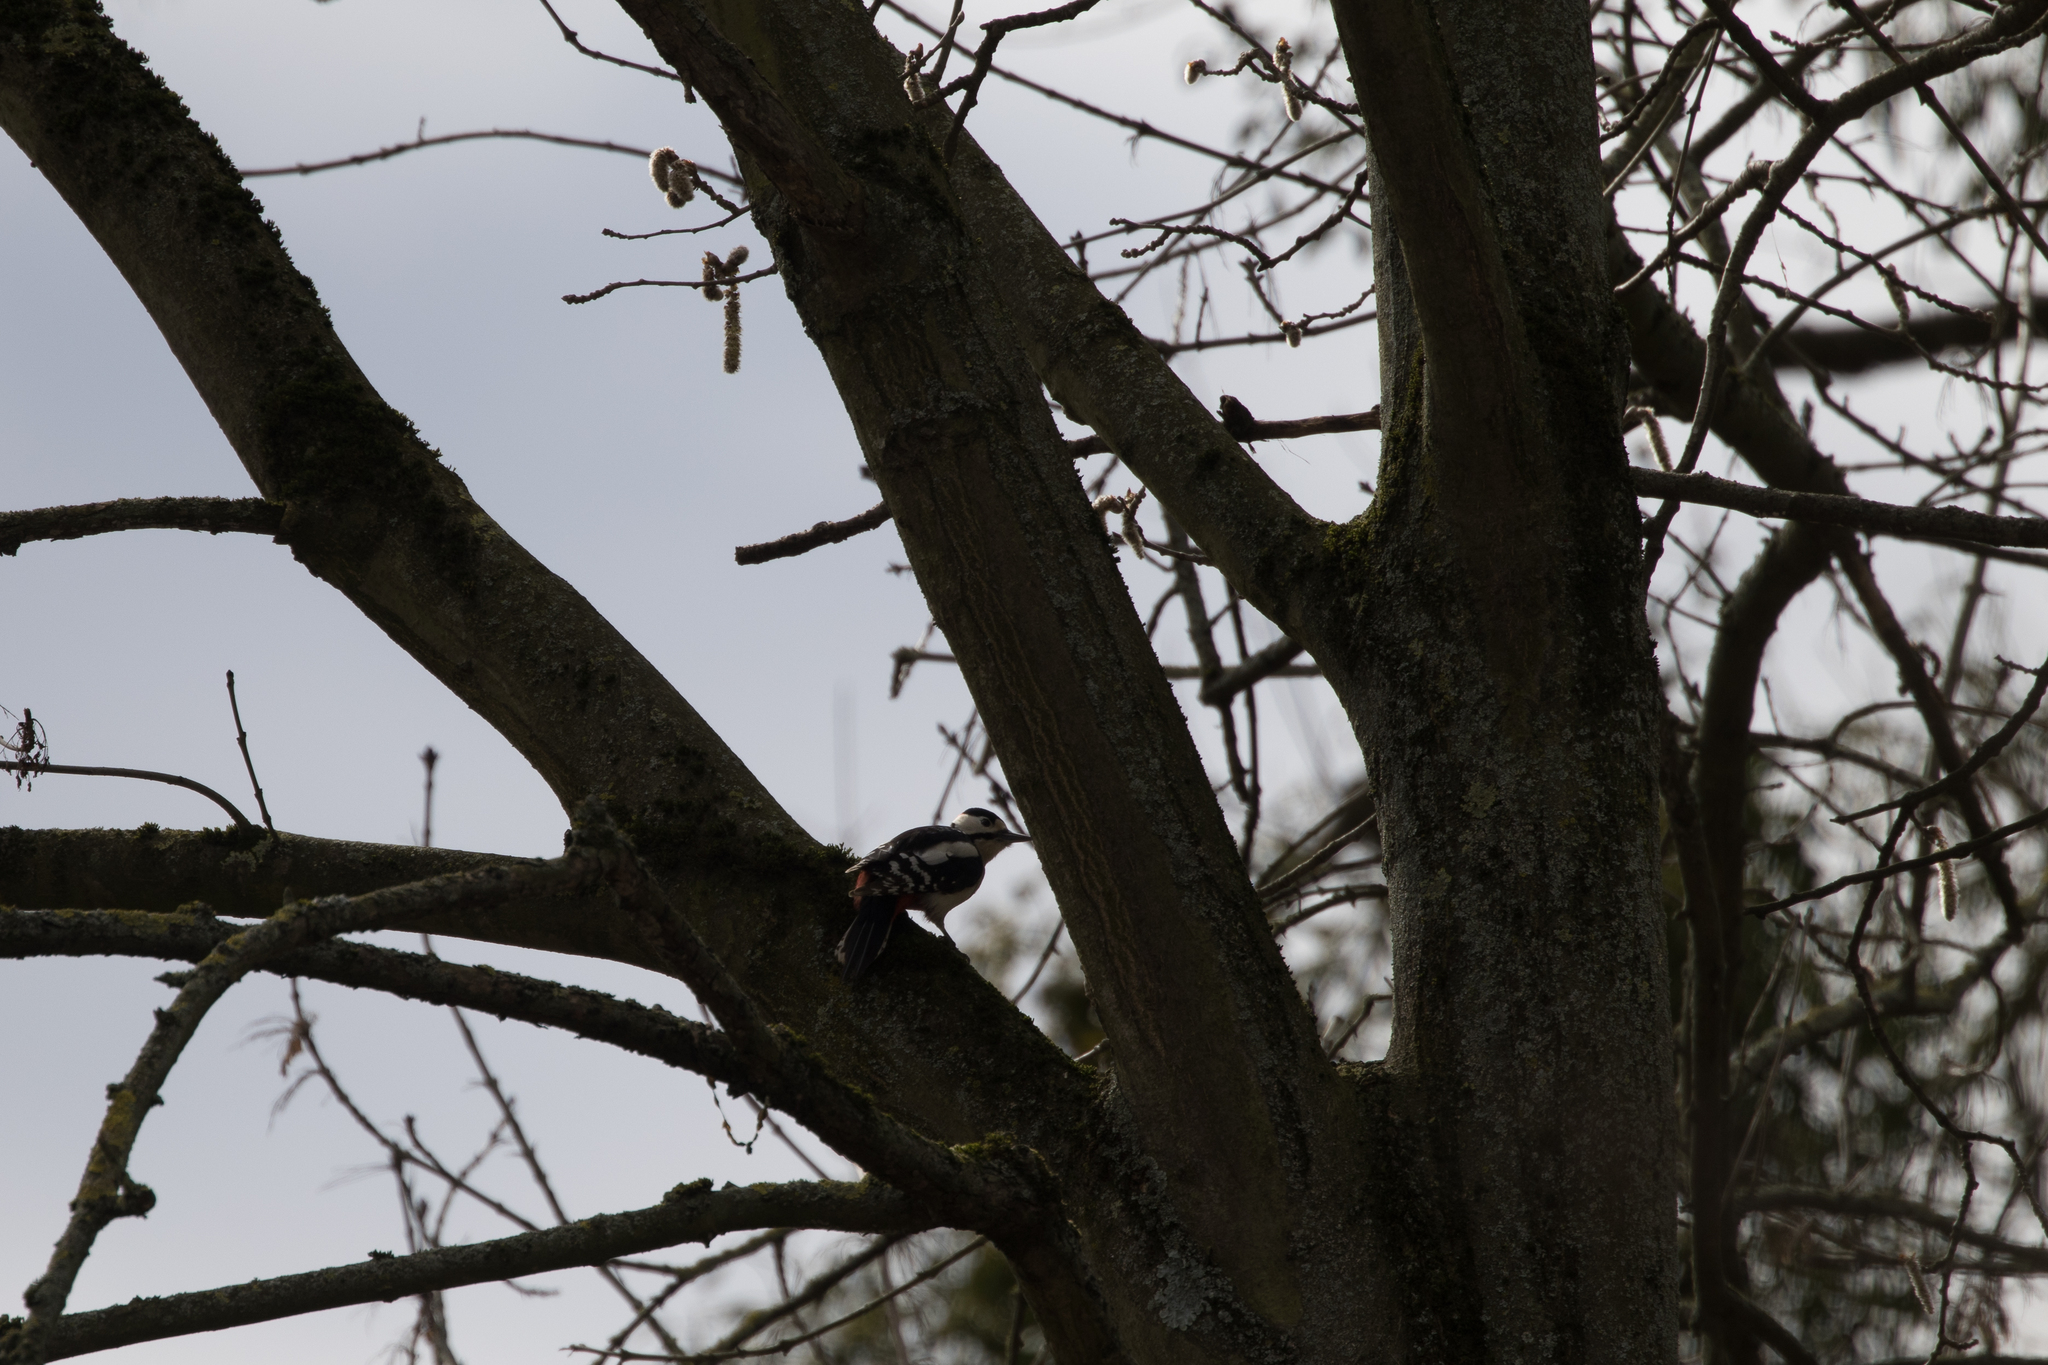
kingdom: Animalia
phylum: Chordata
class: Aves
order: Piciformes
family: Picidae
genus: Dendrocopos
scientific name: Dendrocopos major
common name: Great spotted woodpecker
